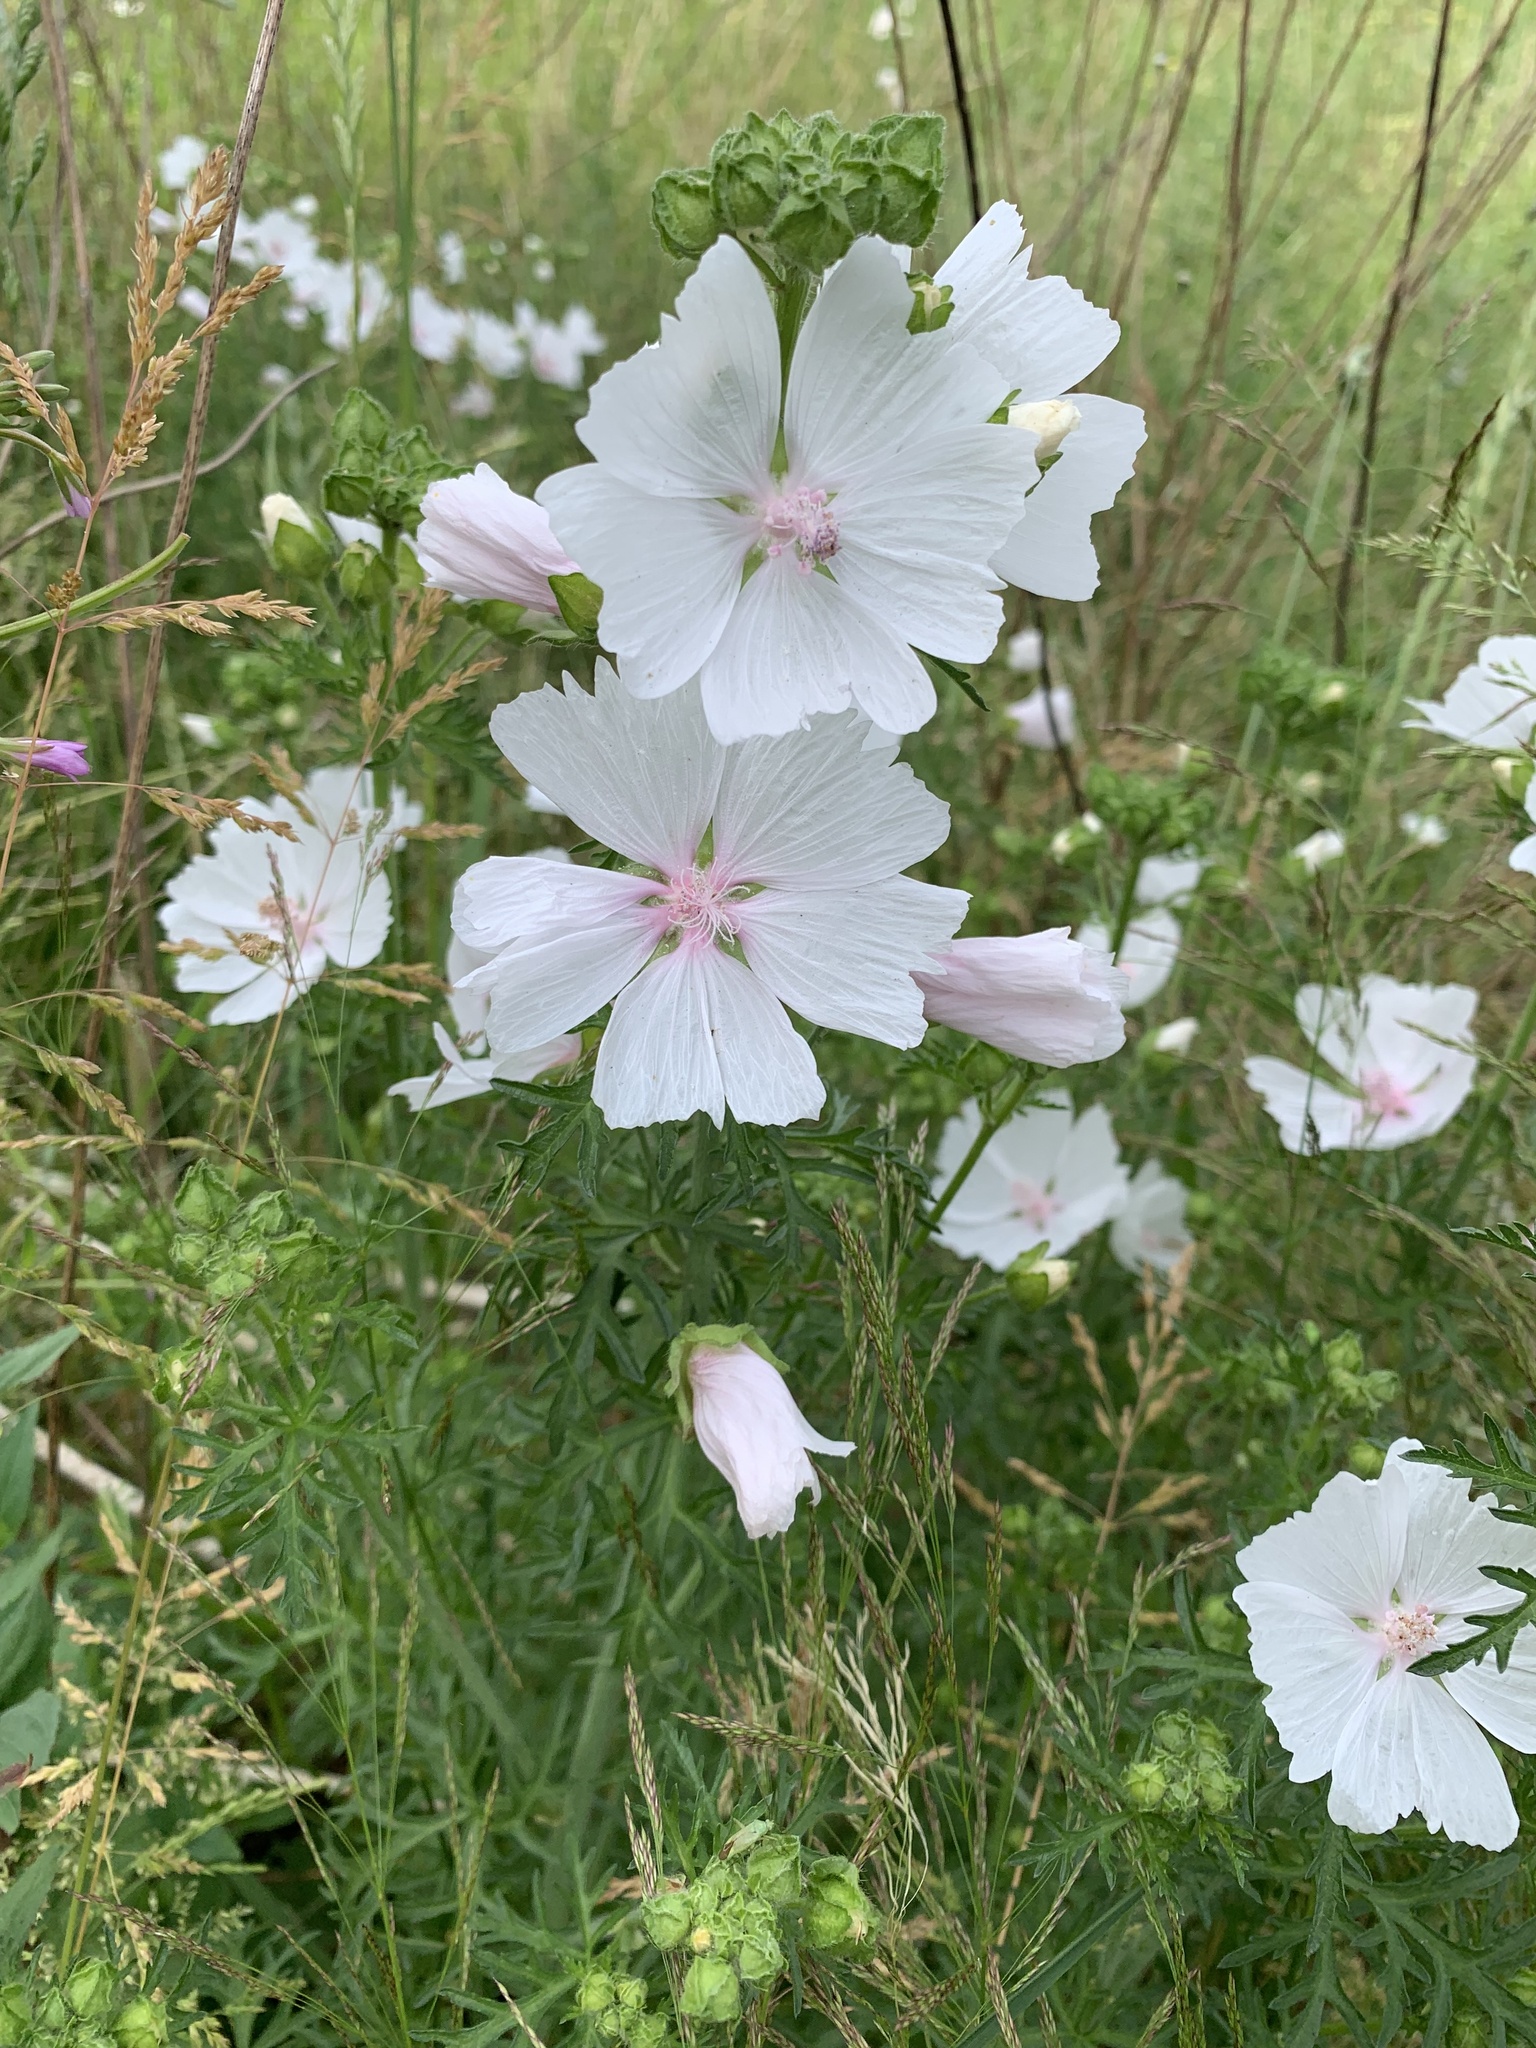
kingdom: Plantae
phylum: Tracheophyta
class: Magnoliopsida
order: Malvales
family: Malvaceae
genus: Malva
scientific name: Malva moschata
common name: Musk mallow
